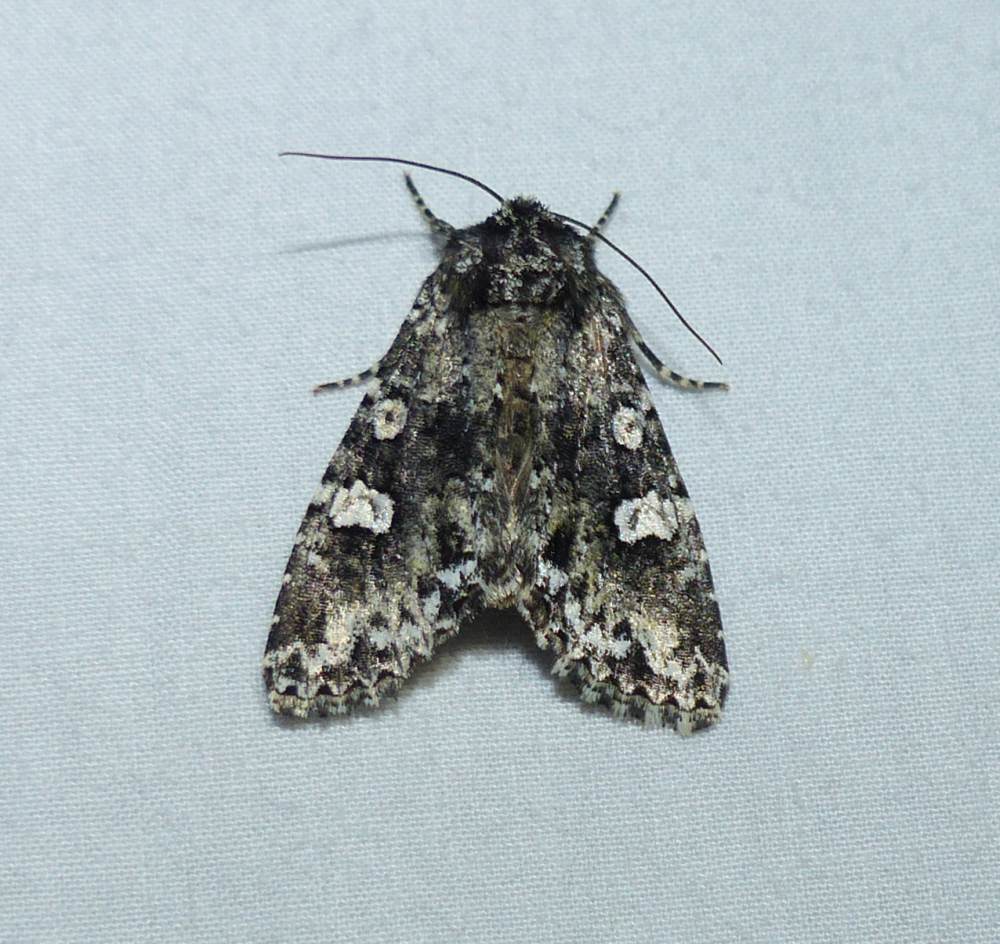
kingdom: Animalia
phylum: Arthropoda
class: Insecta
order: Lepidoptera
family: Noctuidae
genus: Melanchra
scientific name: Melanchra adjuncta
